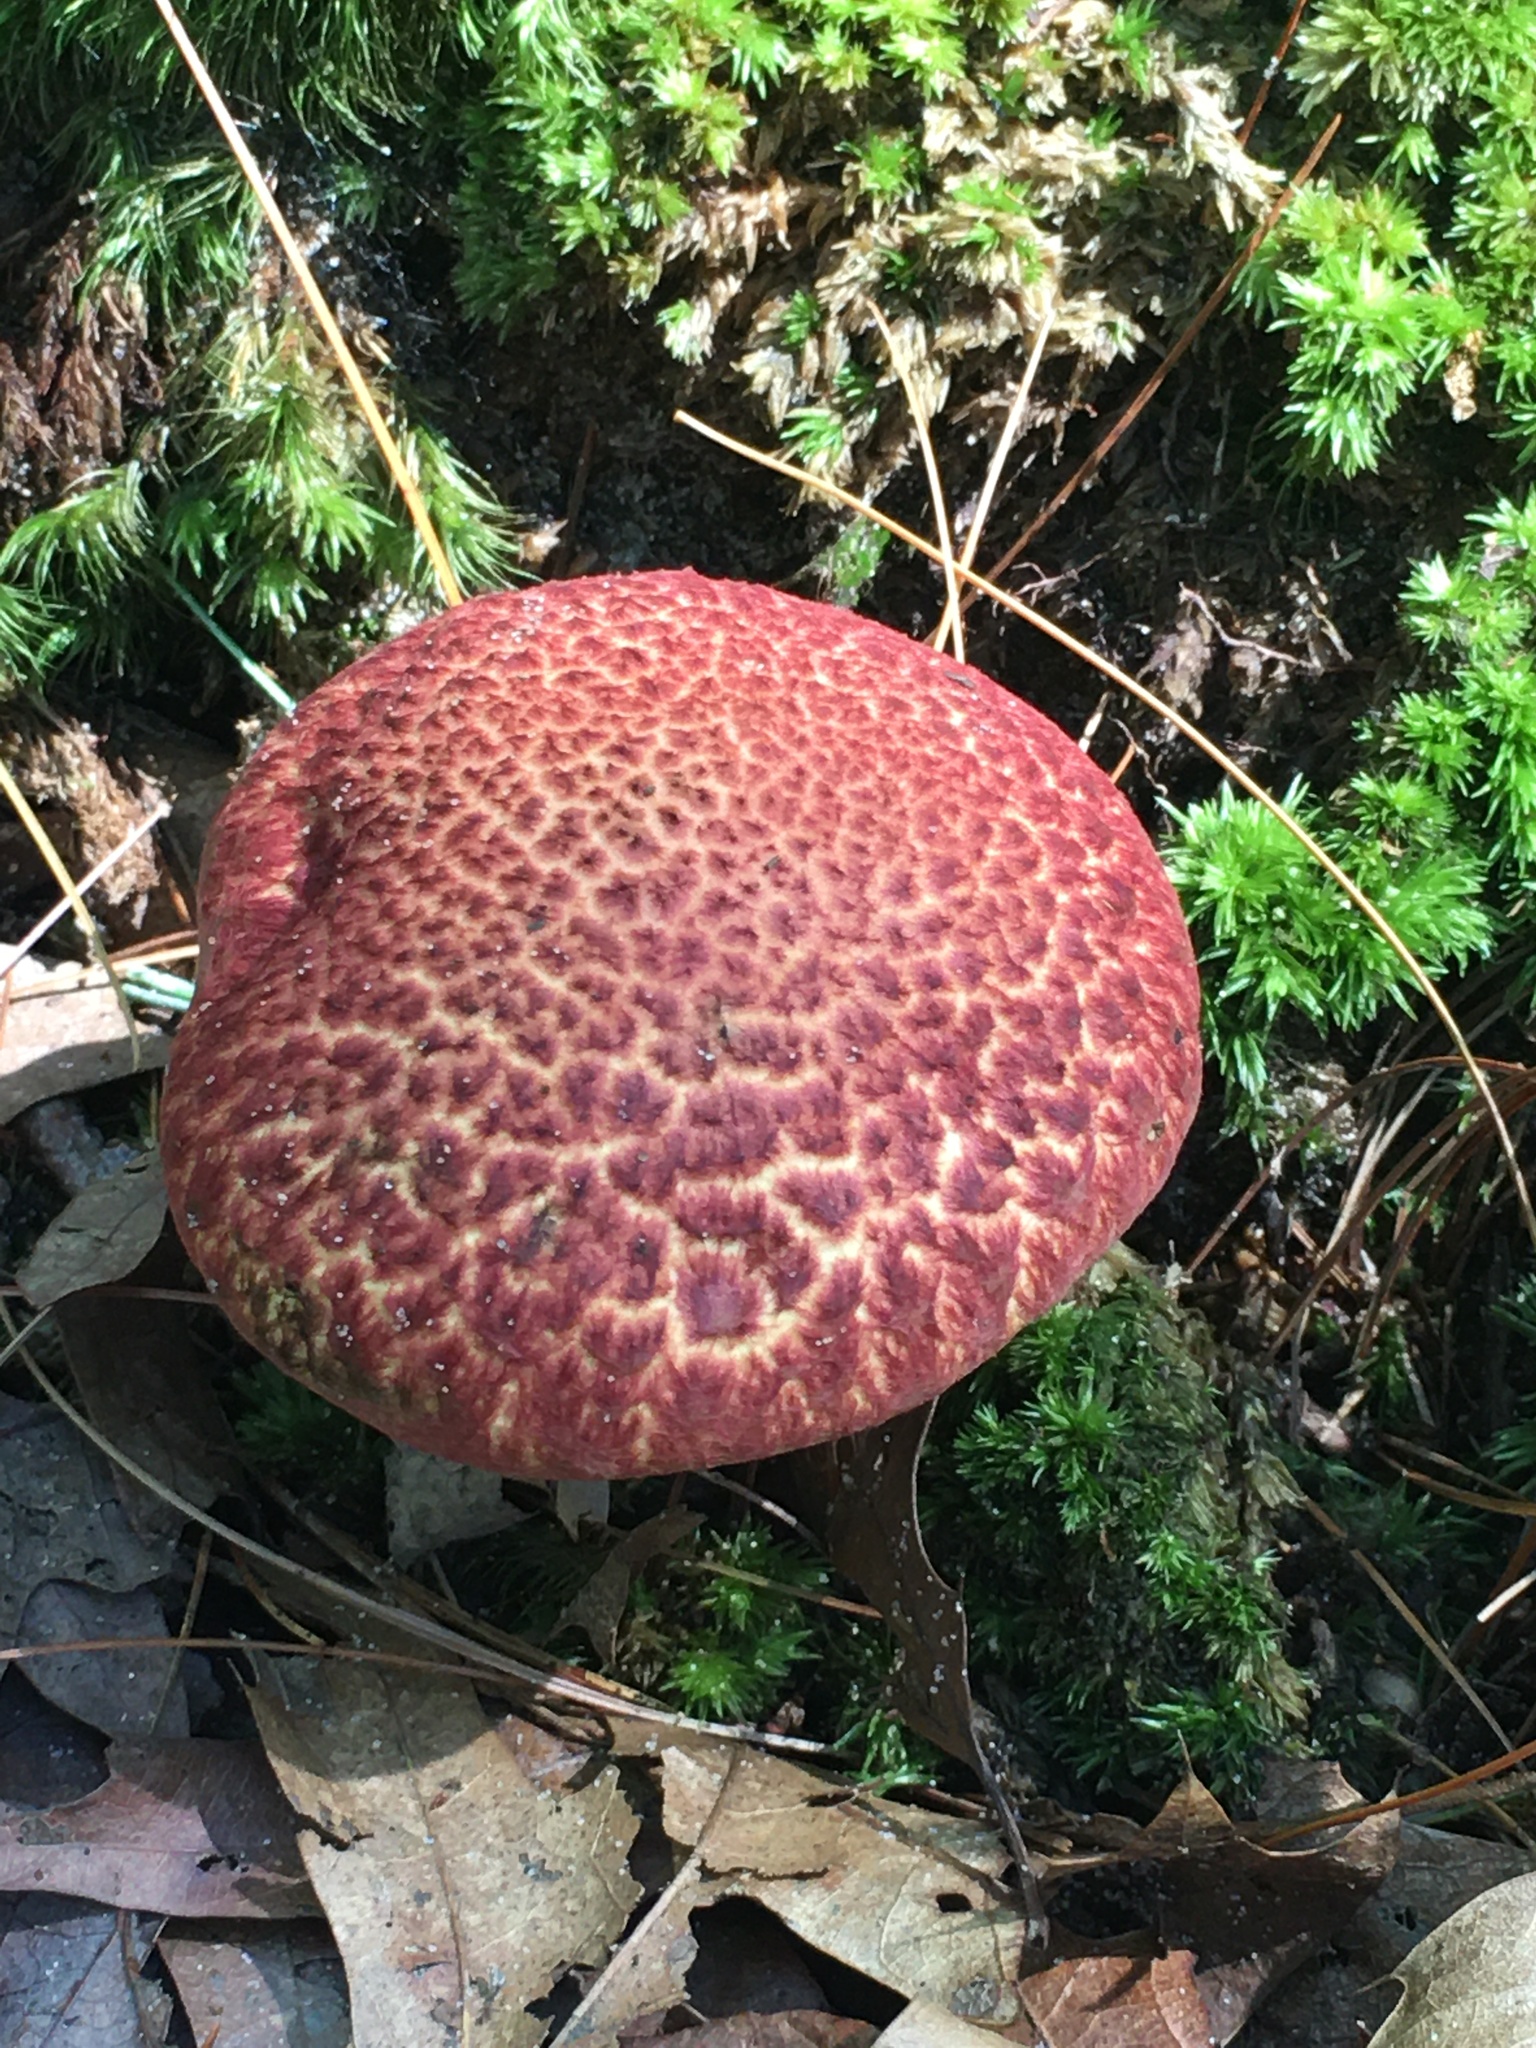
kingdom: Fungi
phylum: Basidiomycota
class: Agaricomycetes
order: Boletales
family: Suillaceae
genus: Suillus
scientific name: Suillus spraguei
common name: Painted suillus
